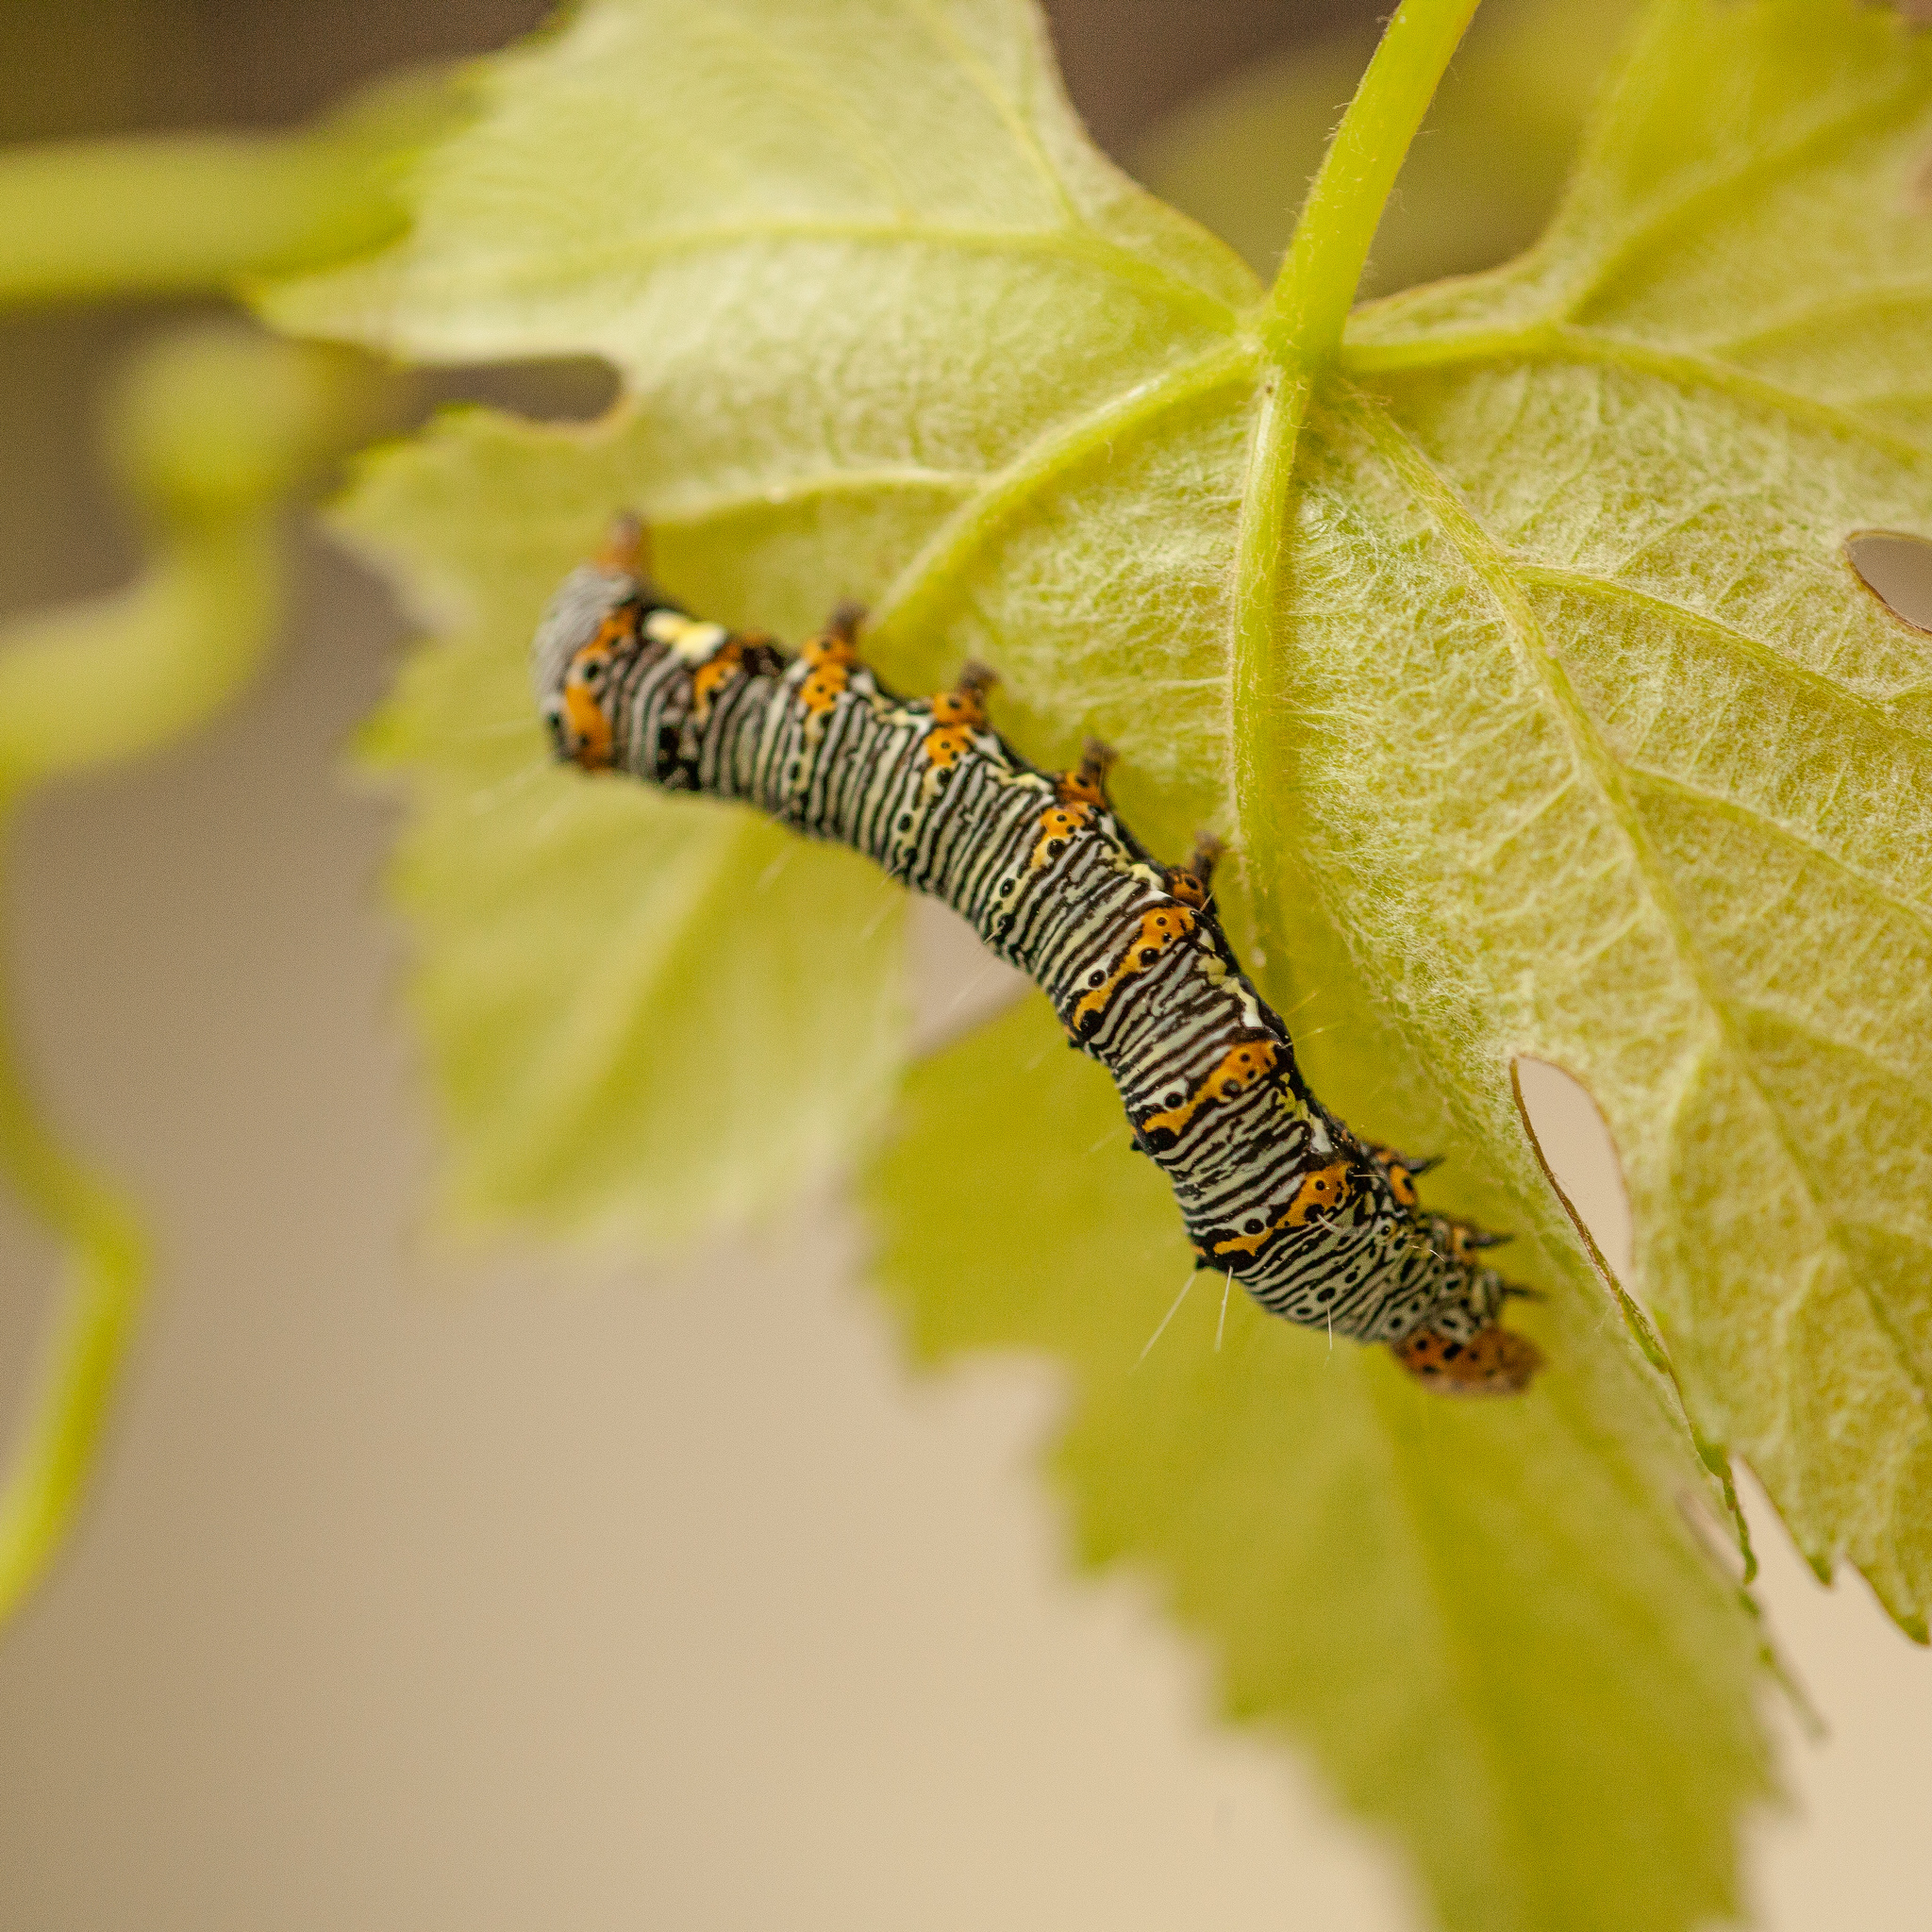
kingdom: Animalia
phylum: Arthropoda
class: Insecta
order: Lepidoptera
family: Noctuidae
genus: Alypia
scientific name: Alypia octomaculata
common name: Eight-spotted forester
